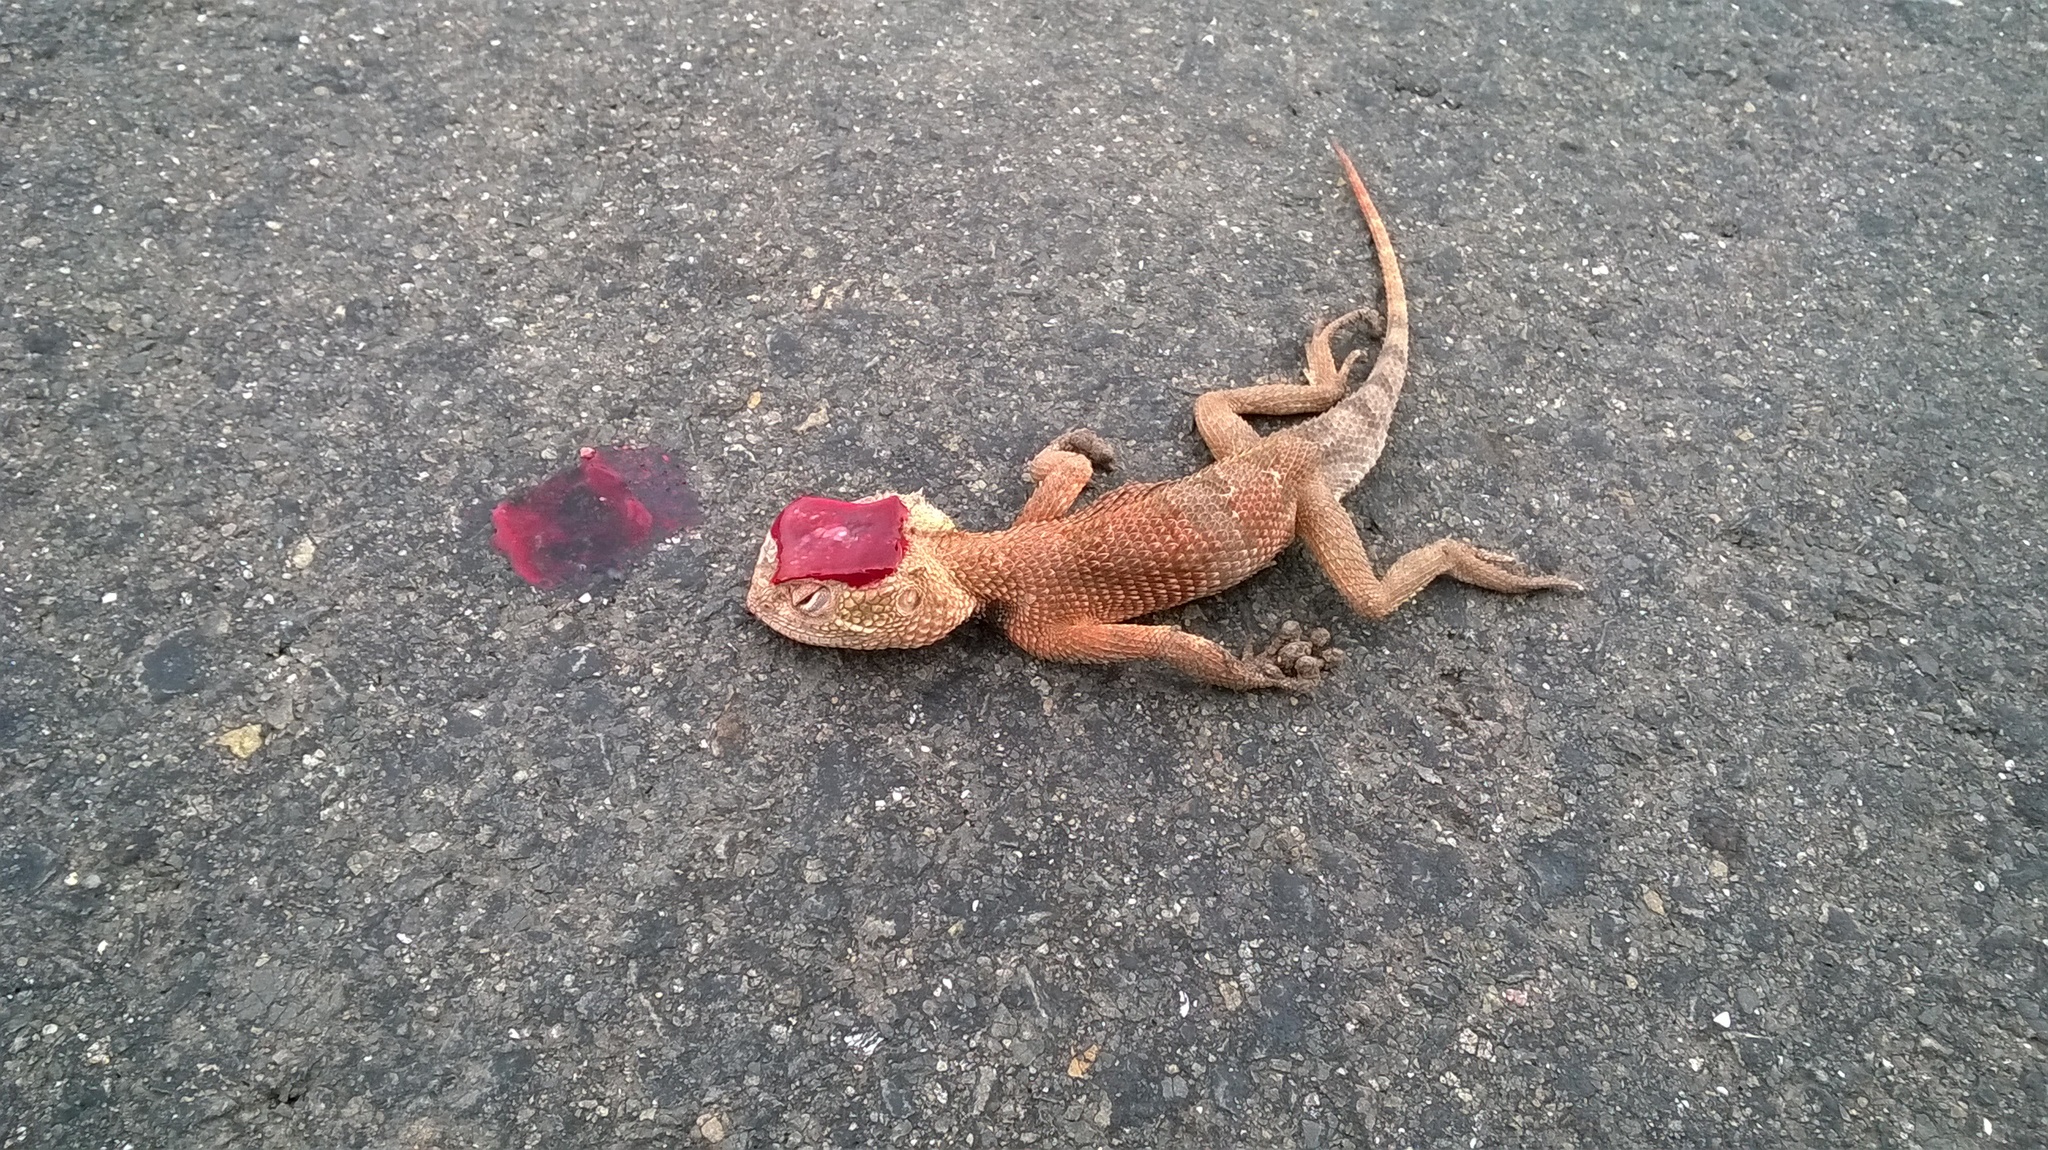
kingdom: Animalia
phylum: Chordata
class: Squamata
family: Agamidae
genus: Calotes
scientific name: Calotes versicolor
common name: Oriental garden lizard
